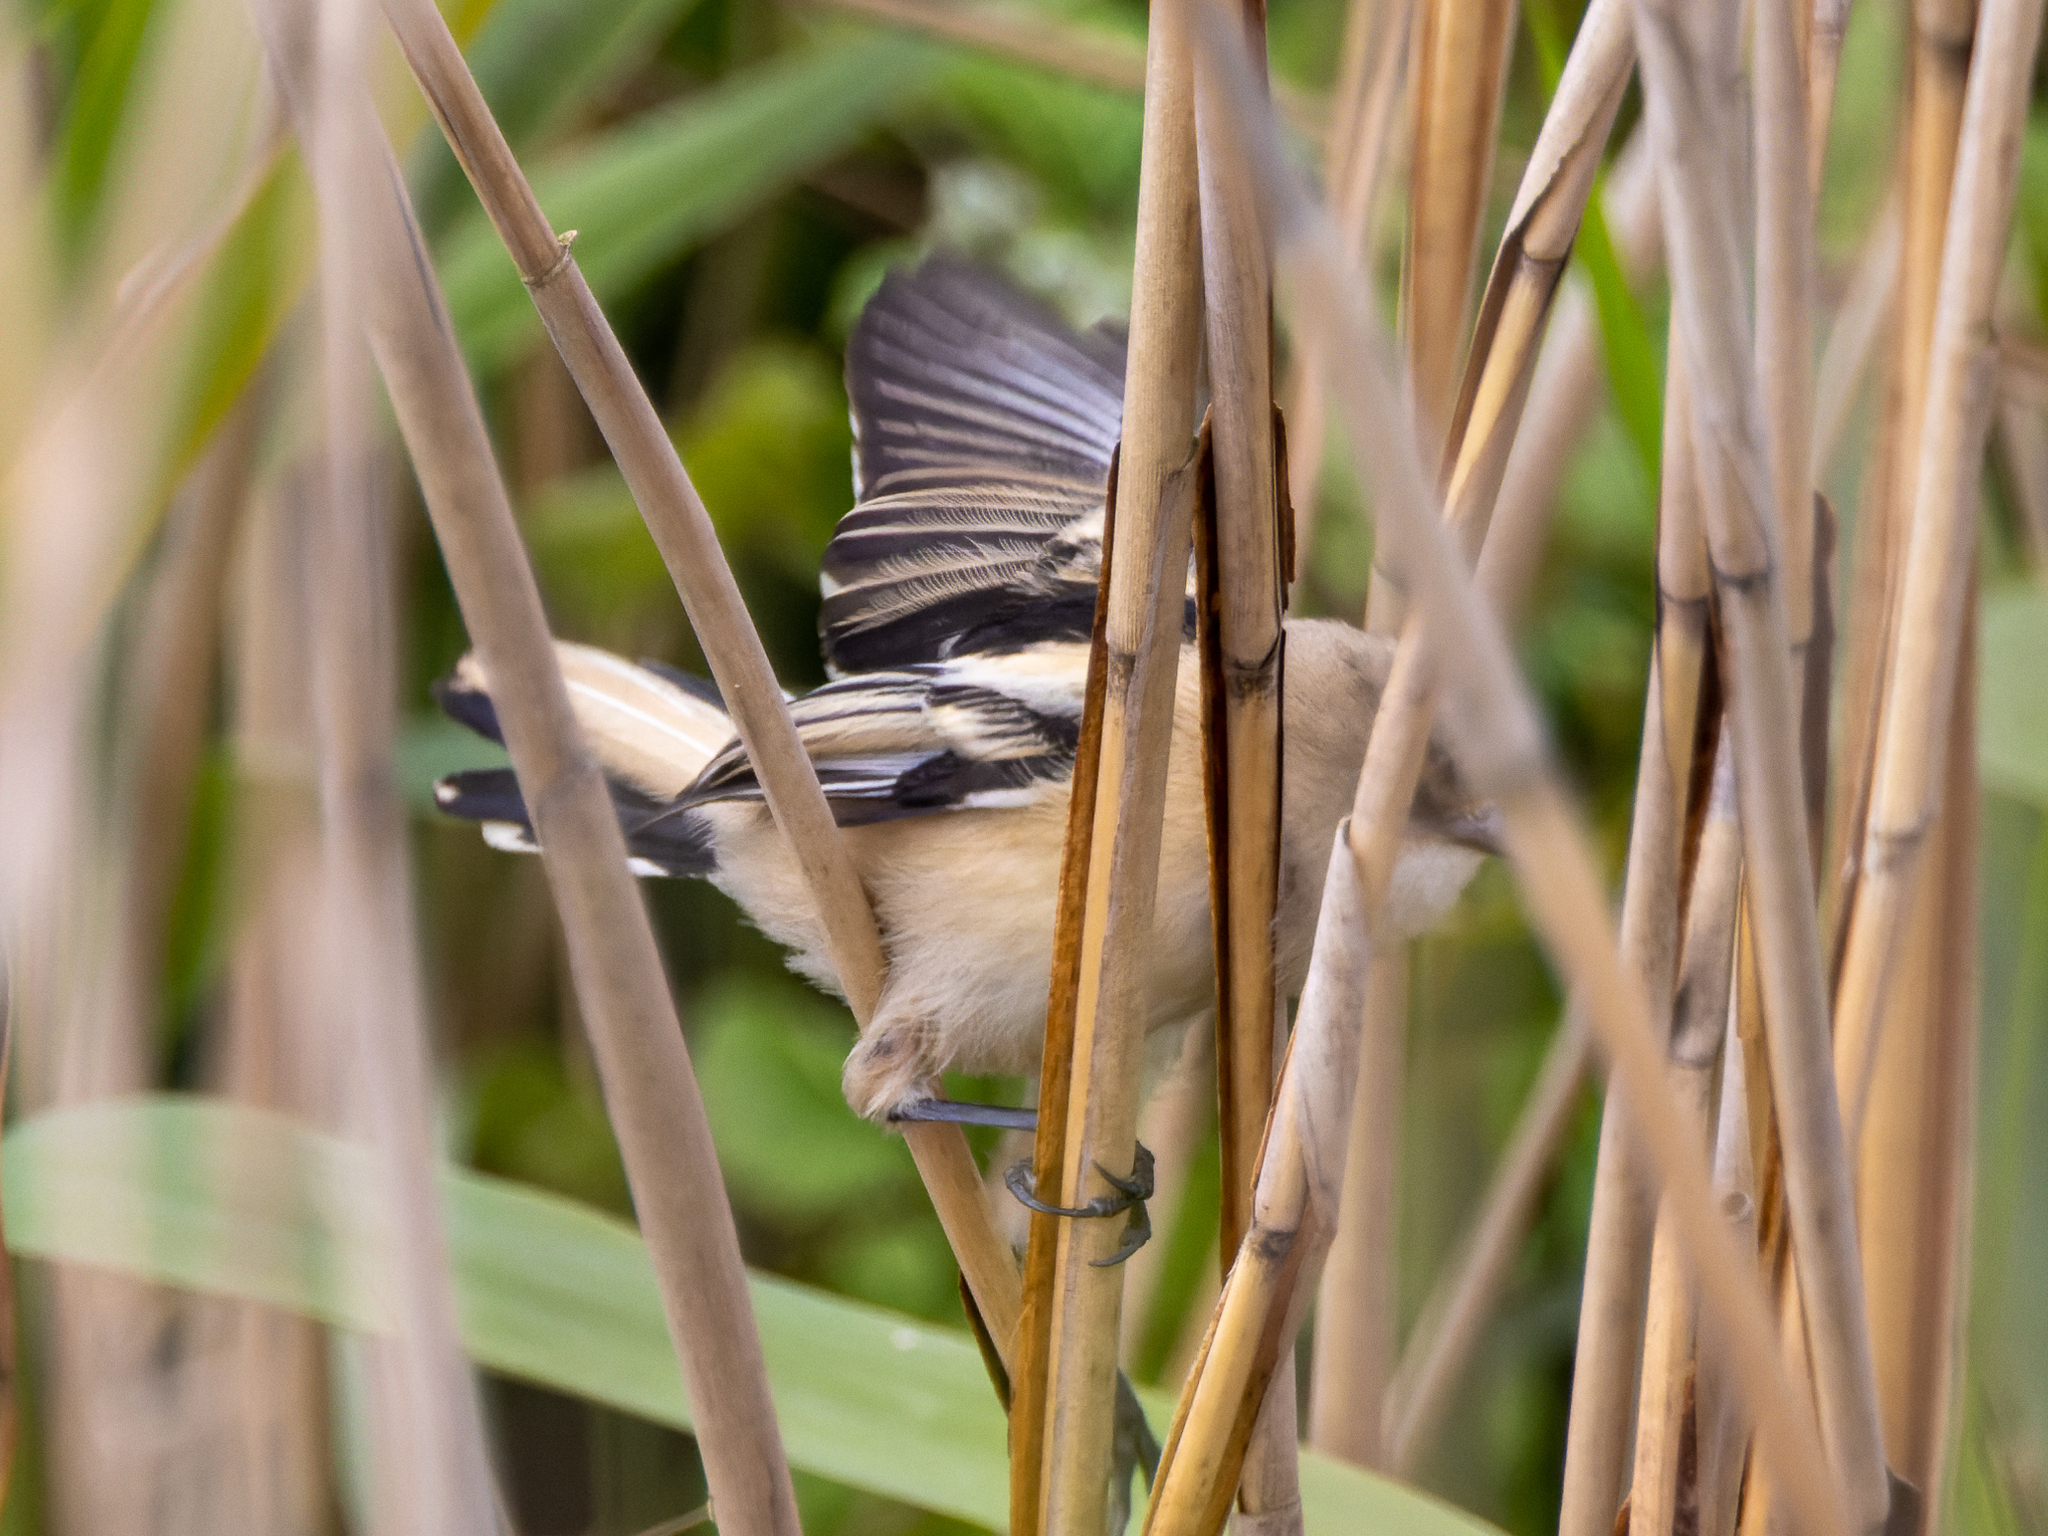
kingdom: Animalia
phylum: Chordata
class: Aves
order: Passeriformes
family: Panuridae
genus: Panurus
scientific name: Panurus biarmicus
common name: Bearded reedling
